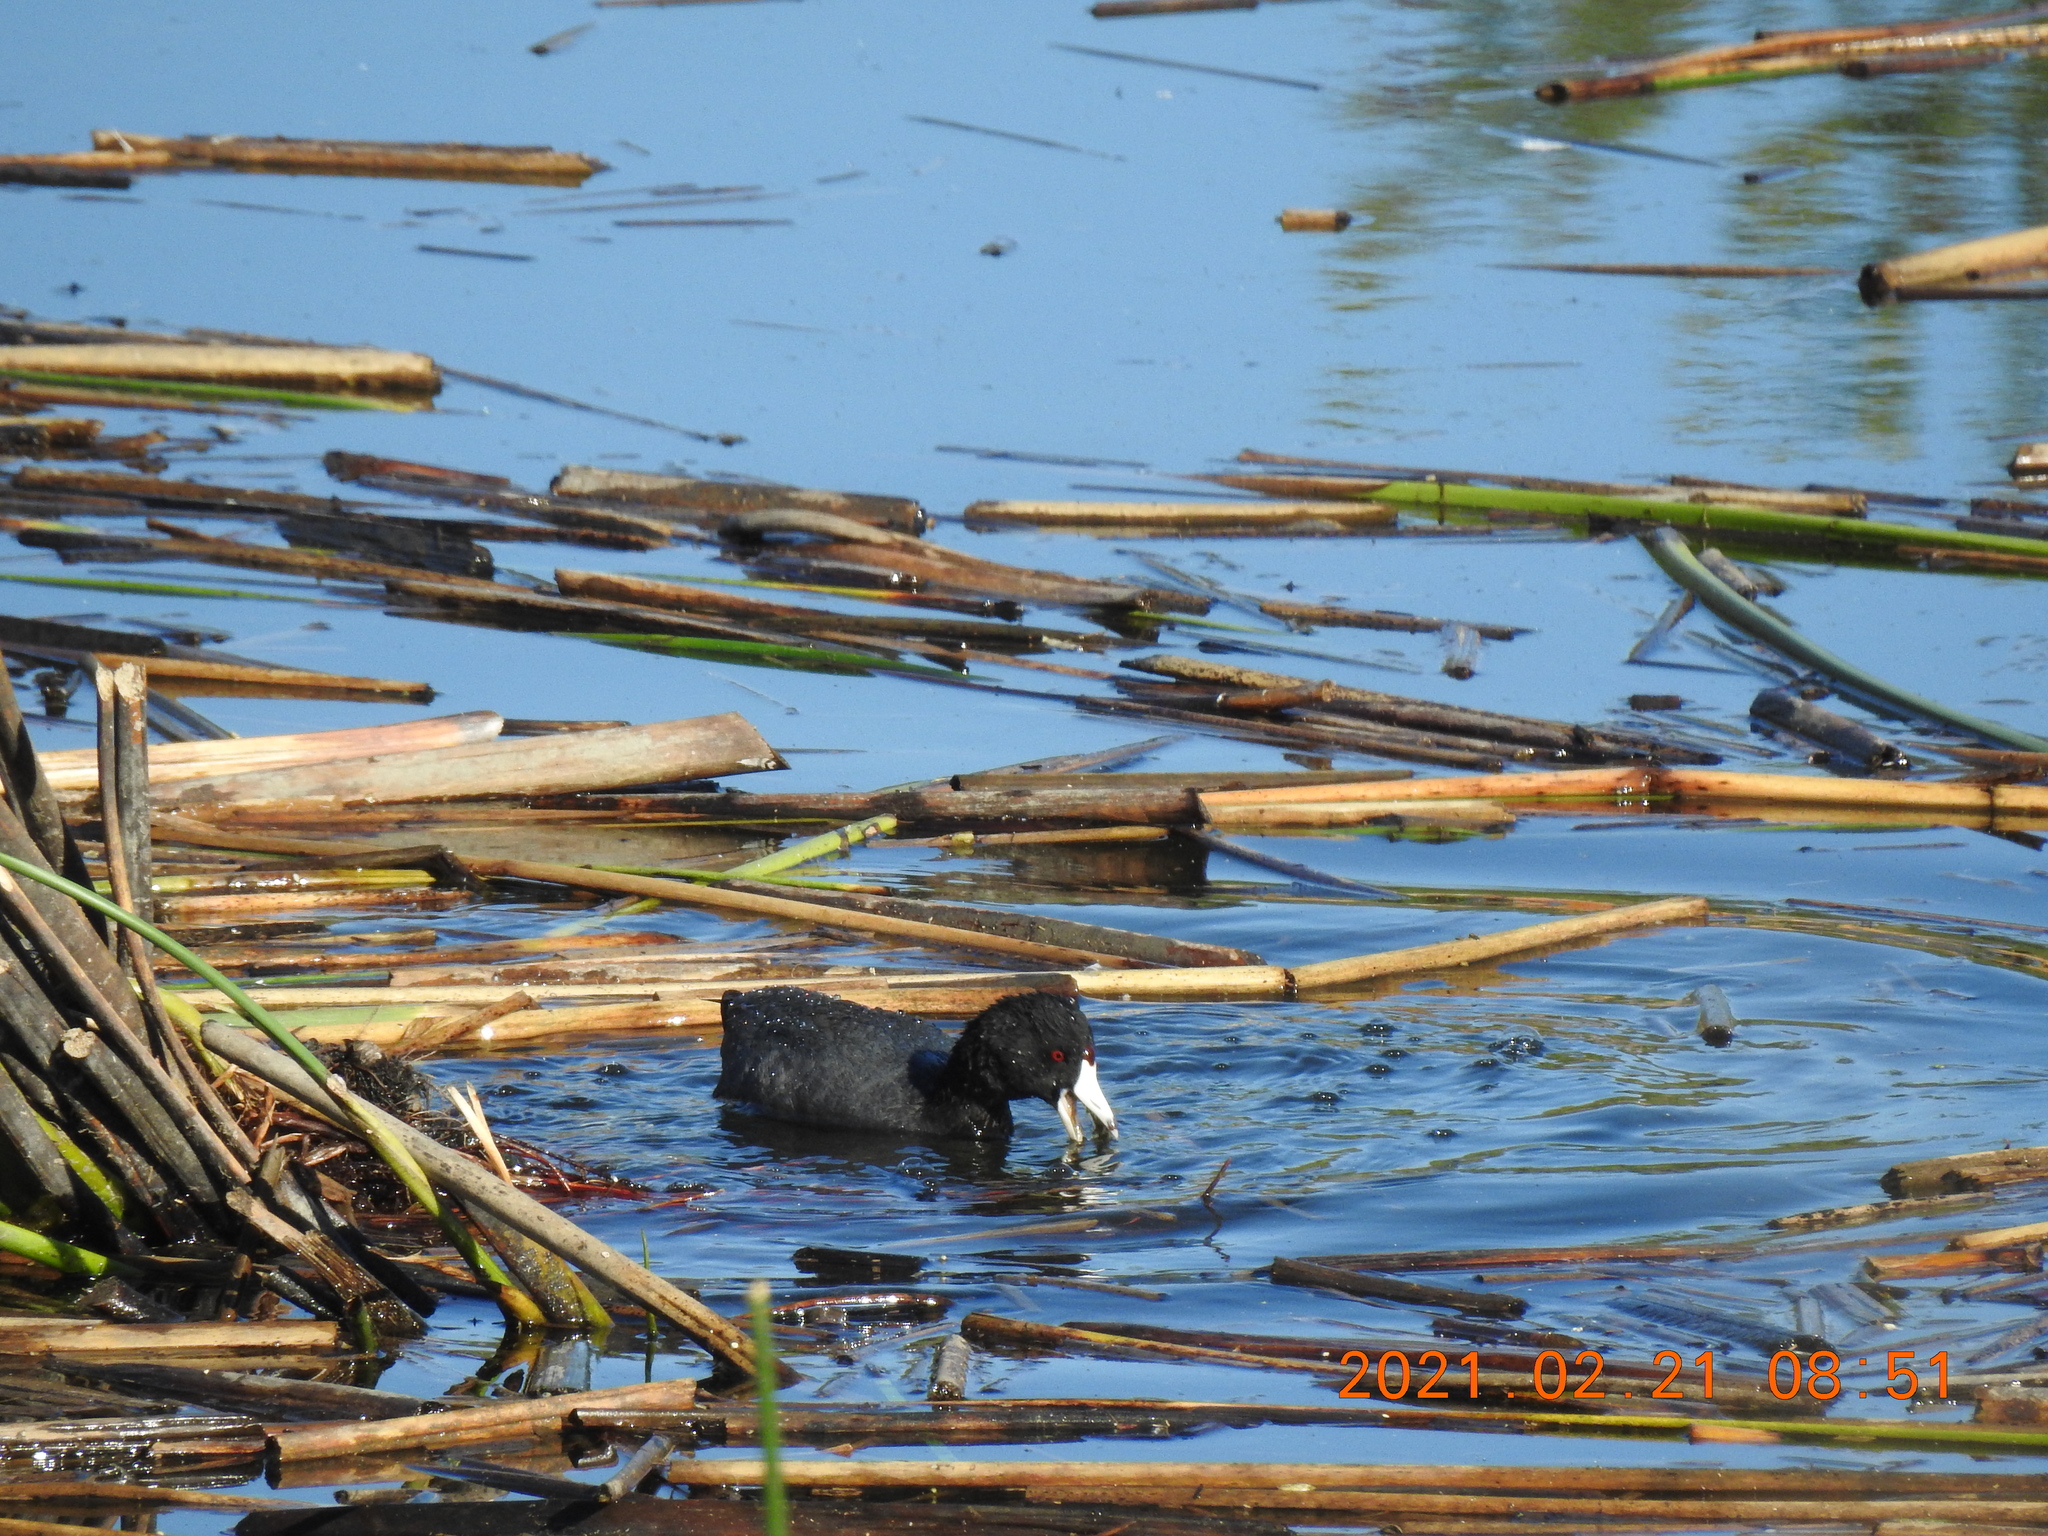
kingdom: Animalia
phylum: Chordata
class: Aves
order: Gruiformes
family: Rallidae
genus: Fulica
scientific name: Fulica americana
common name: American coot
